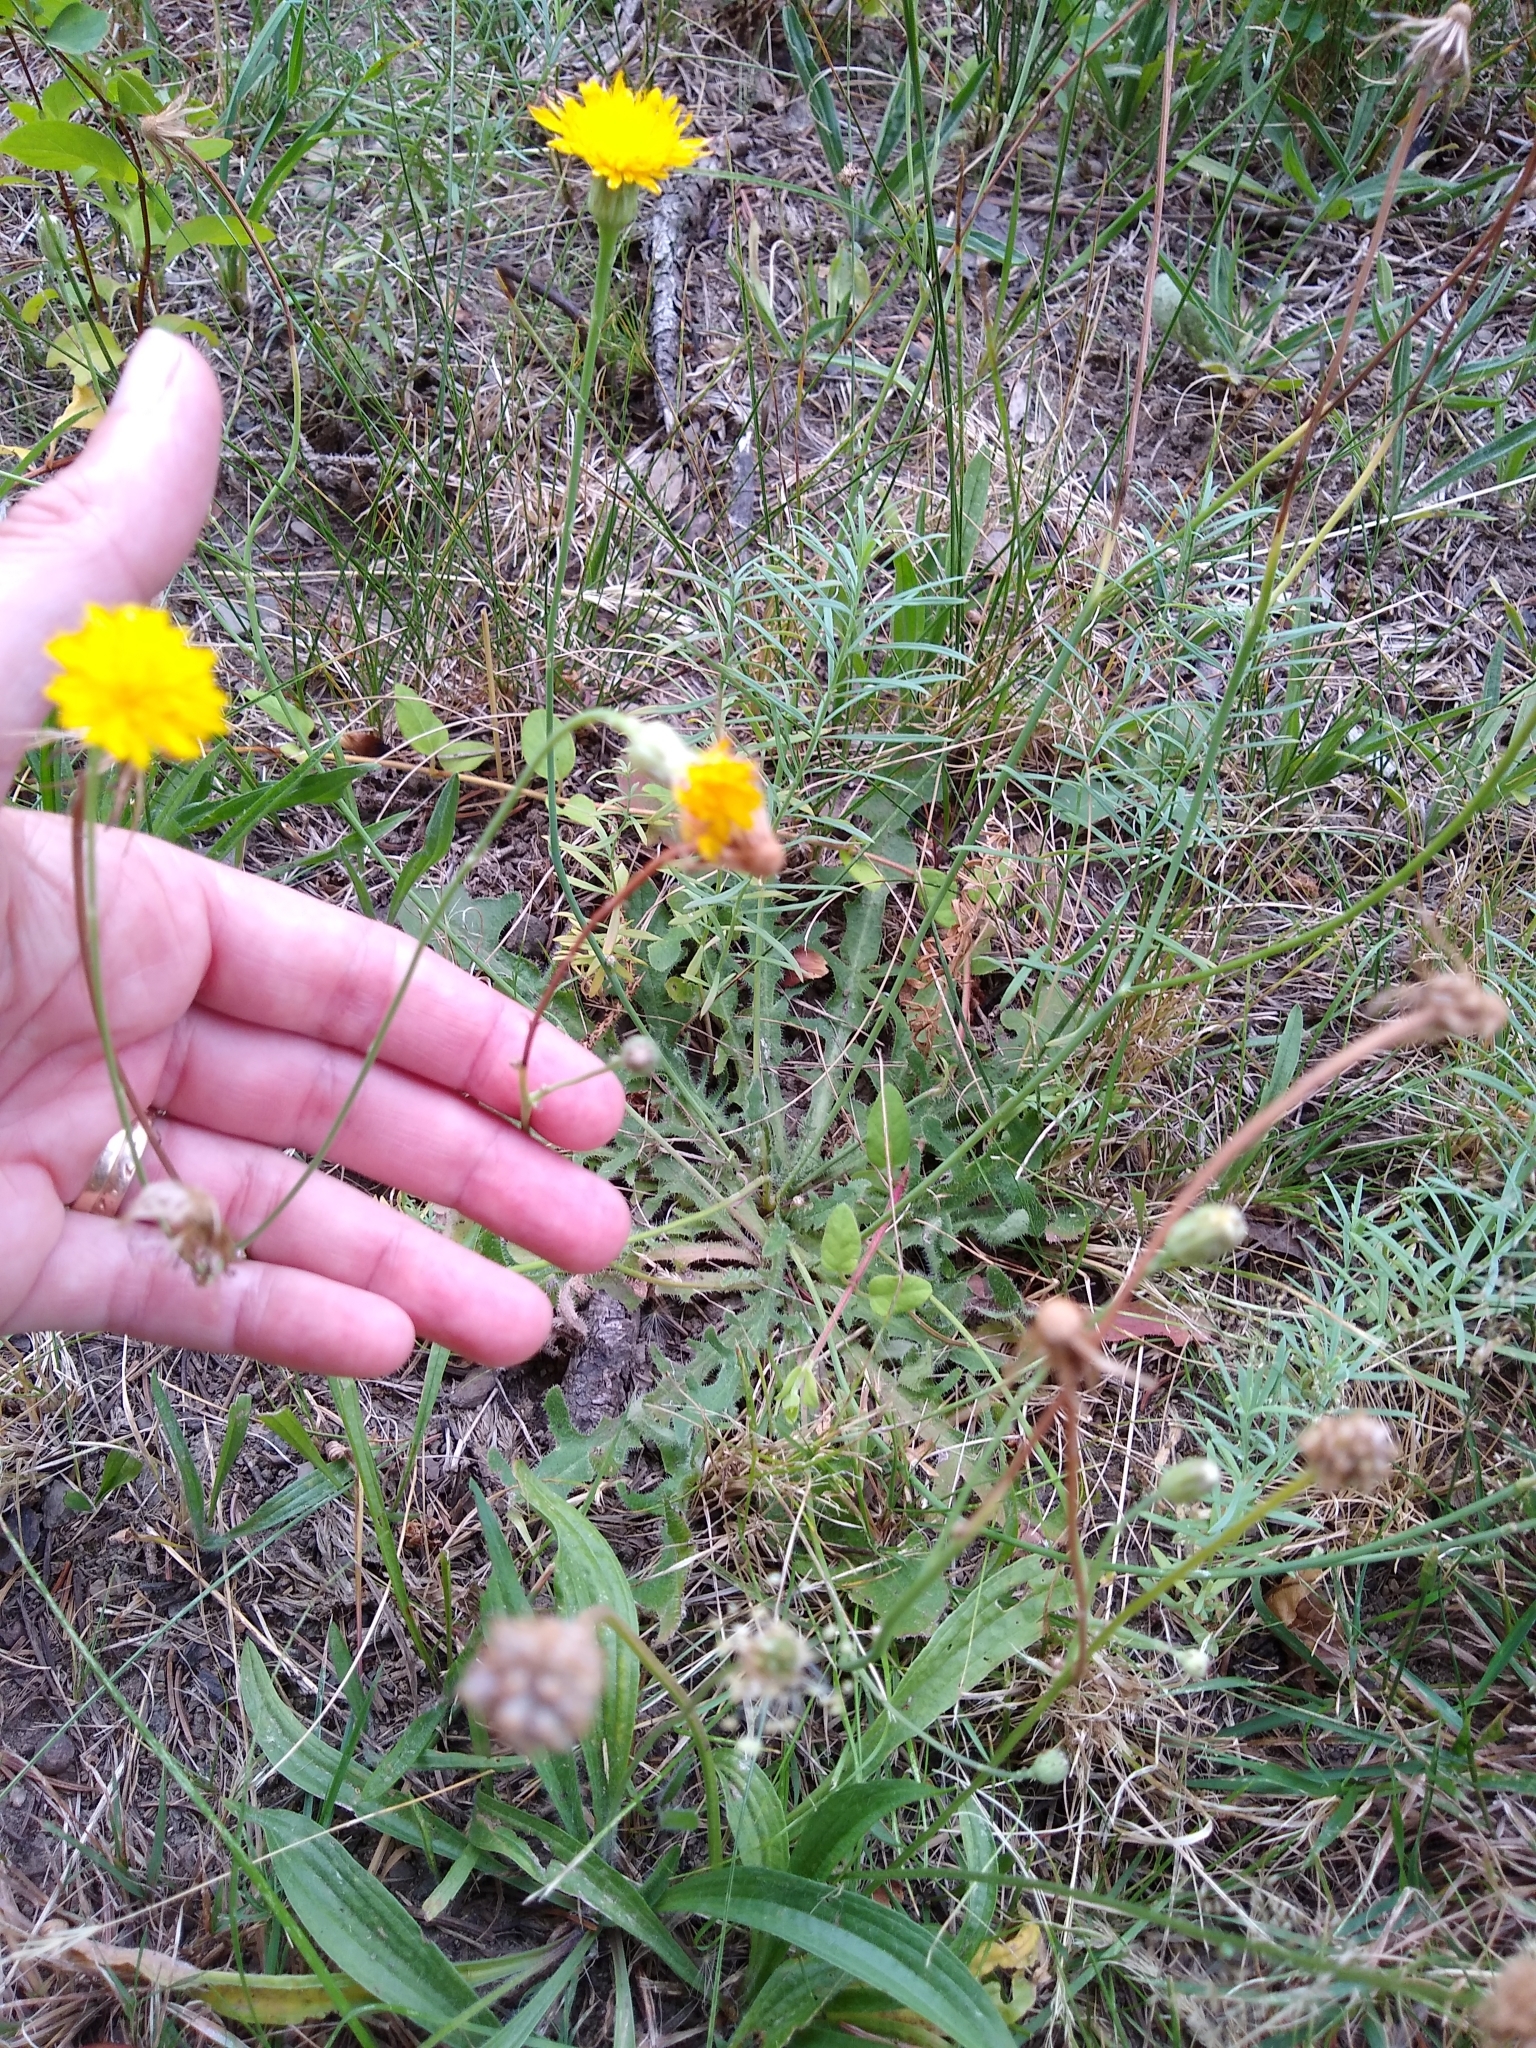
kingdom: Plantae
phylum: Tracheophyta
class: Magnoliopsida
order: Asterales
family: Asteraceae
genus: Scorzoneroides
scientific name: Scorzoneroides autumnalis
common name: Autumn hawkbit
